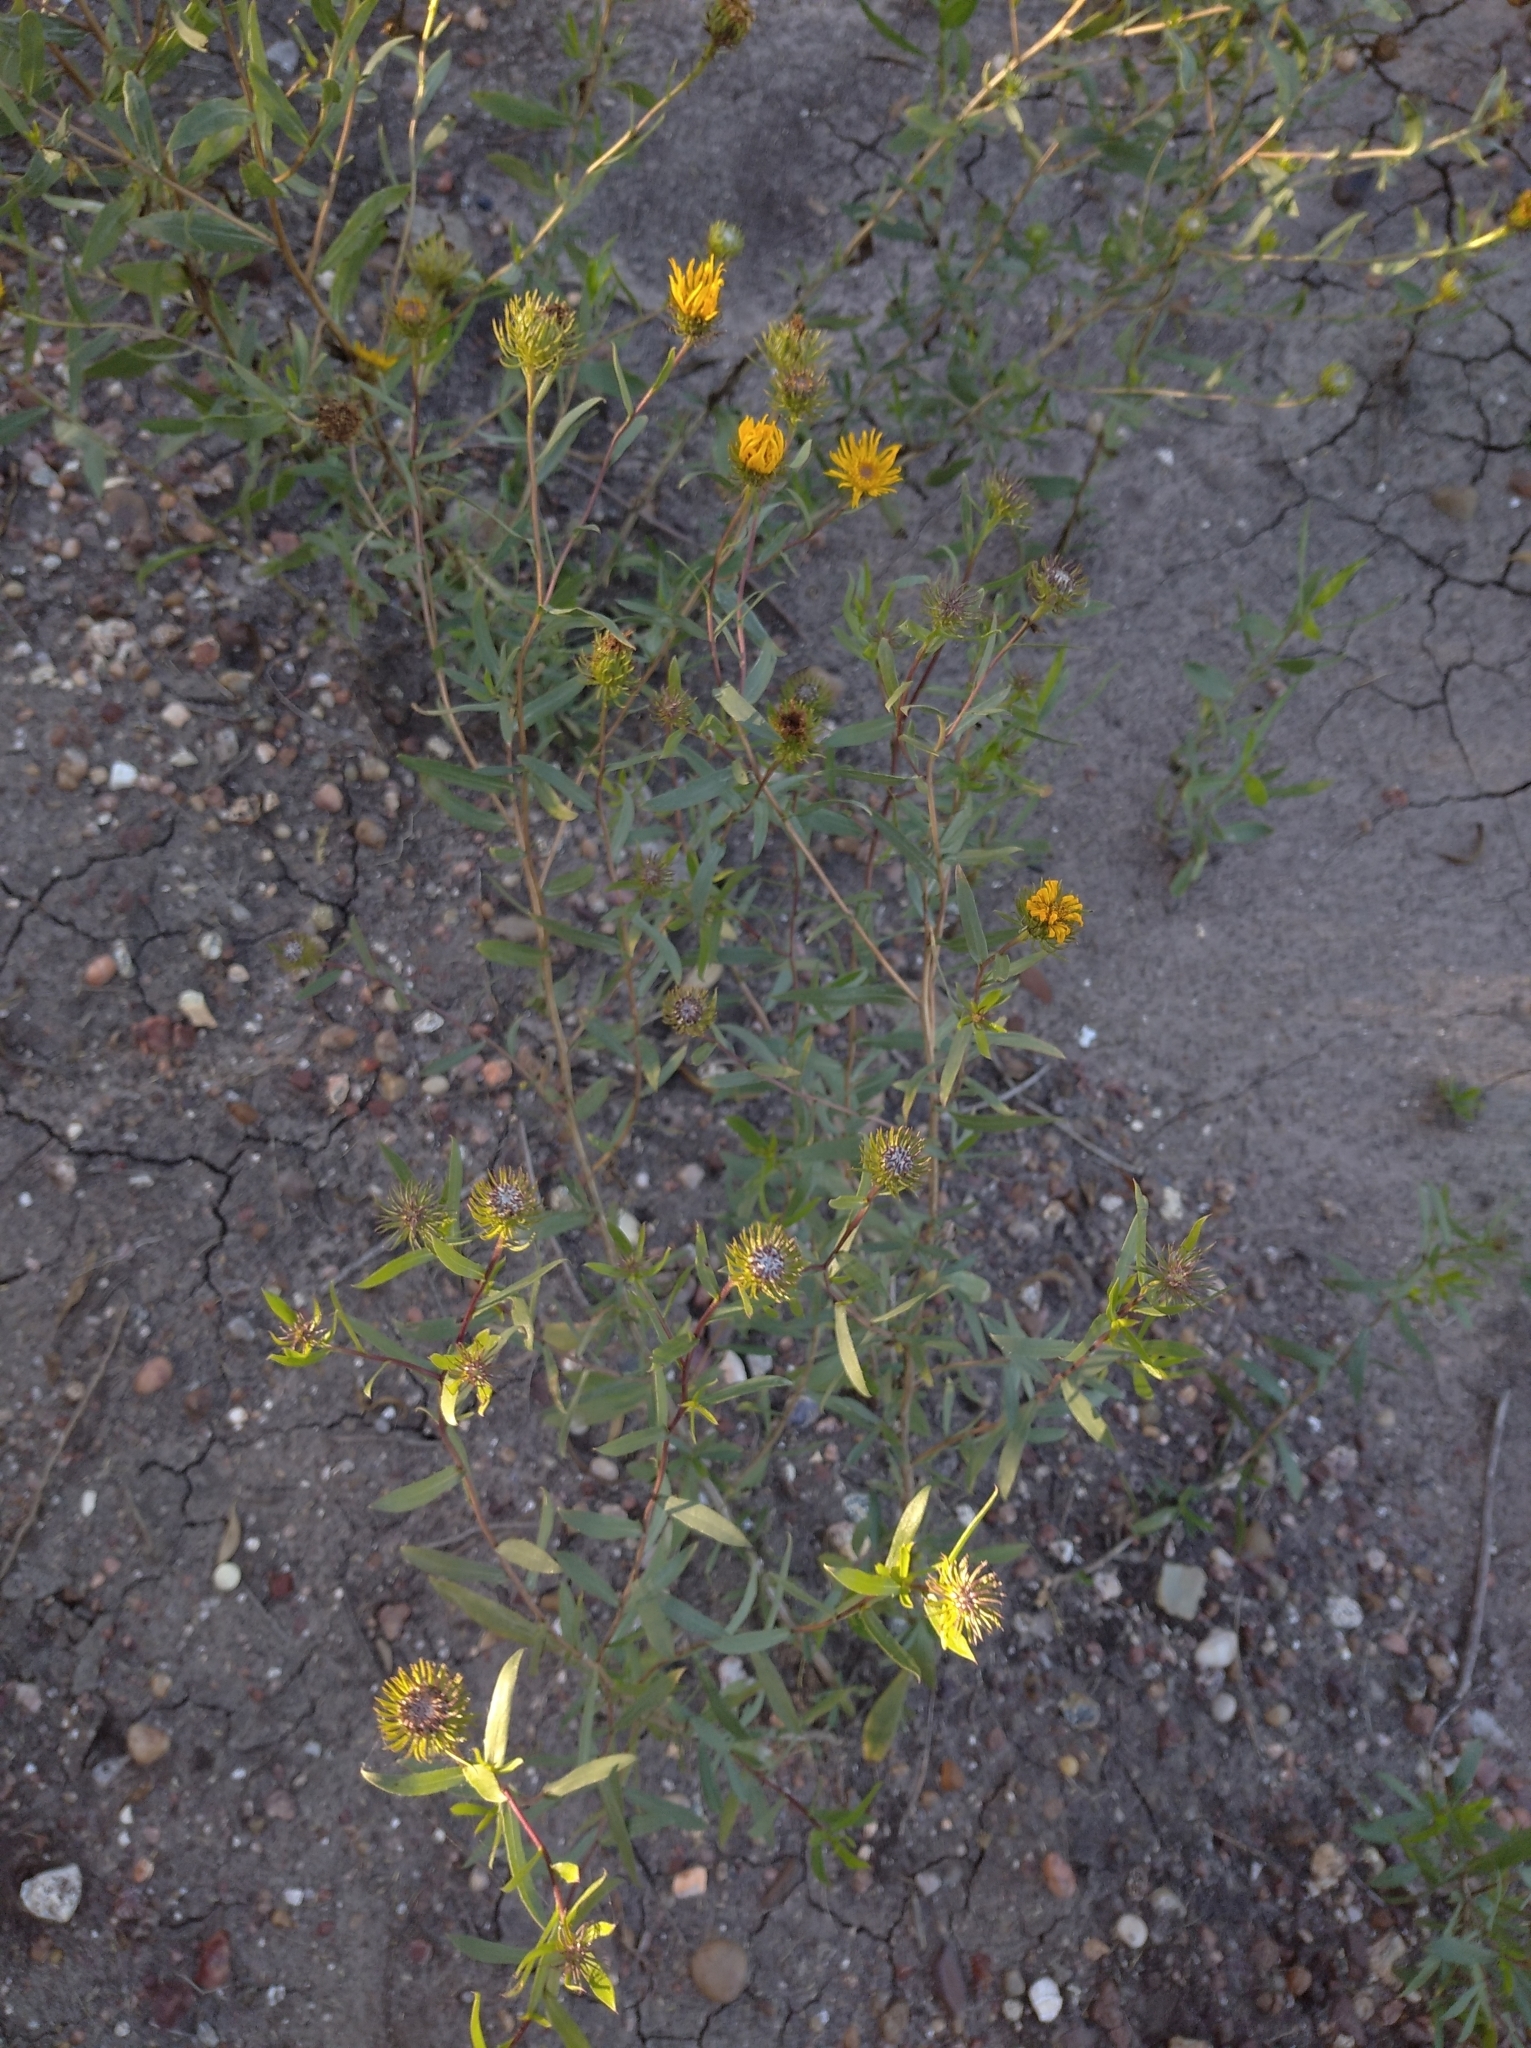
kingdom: Plantae
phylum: Tracheophyta
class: Magnoliopsida
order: Asterales
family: Asteraceae
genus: Grindelia
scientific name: Grindelia pulchella
